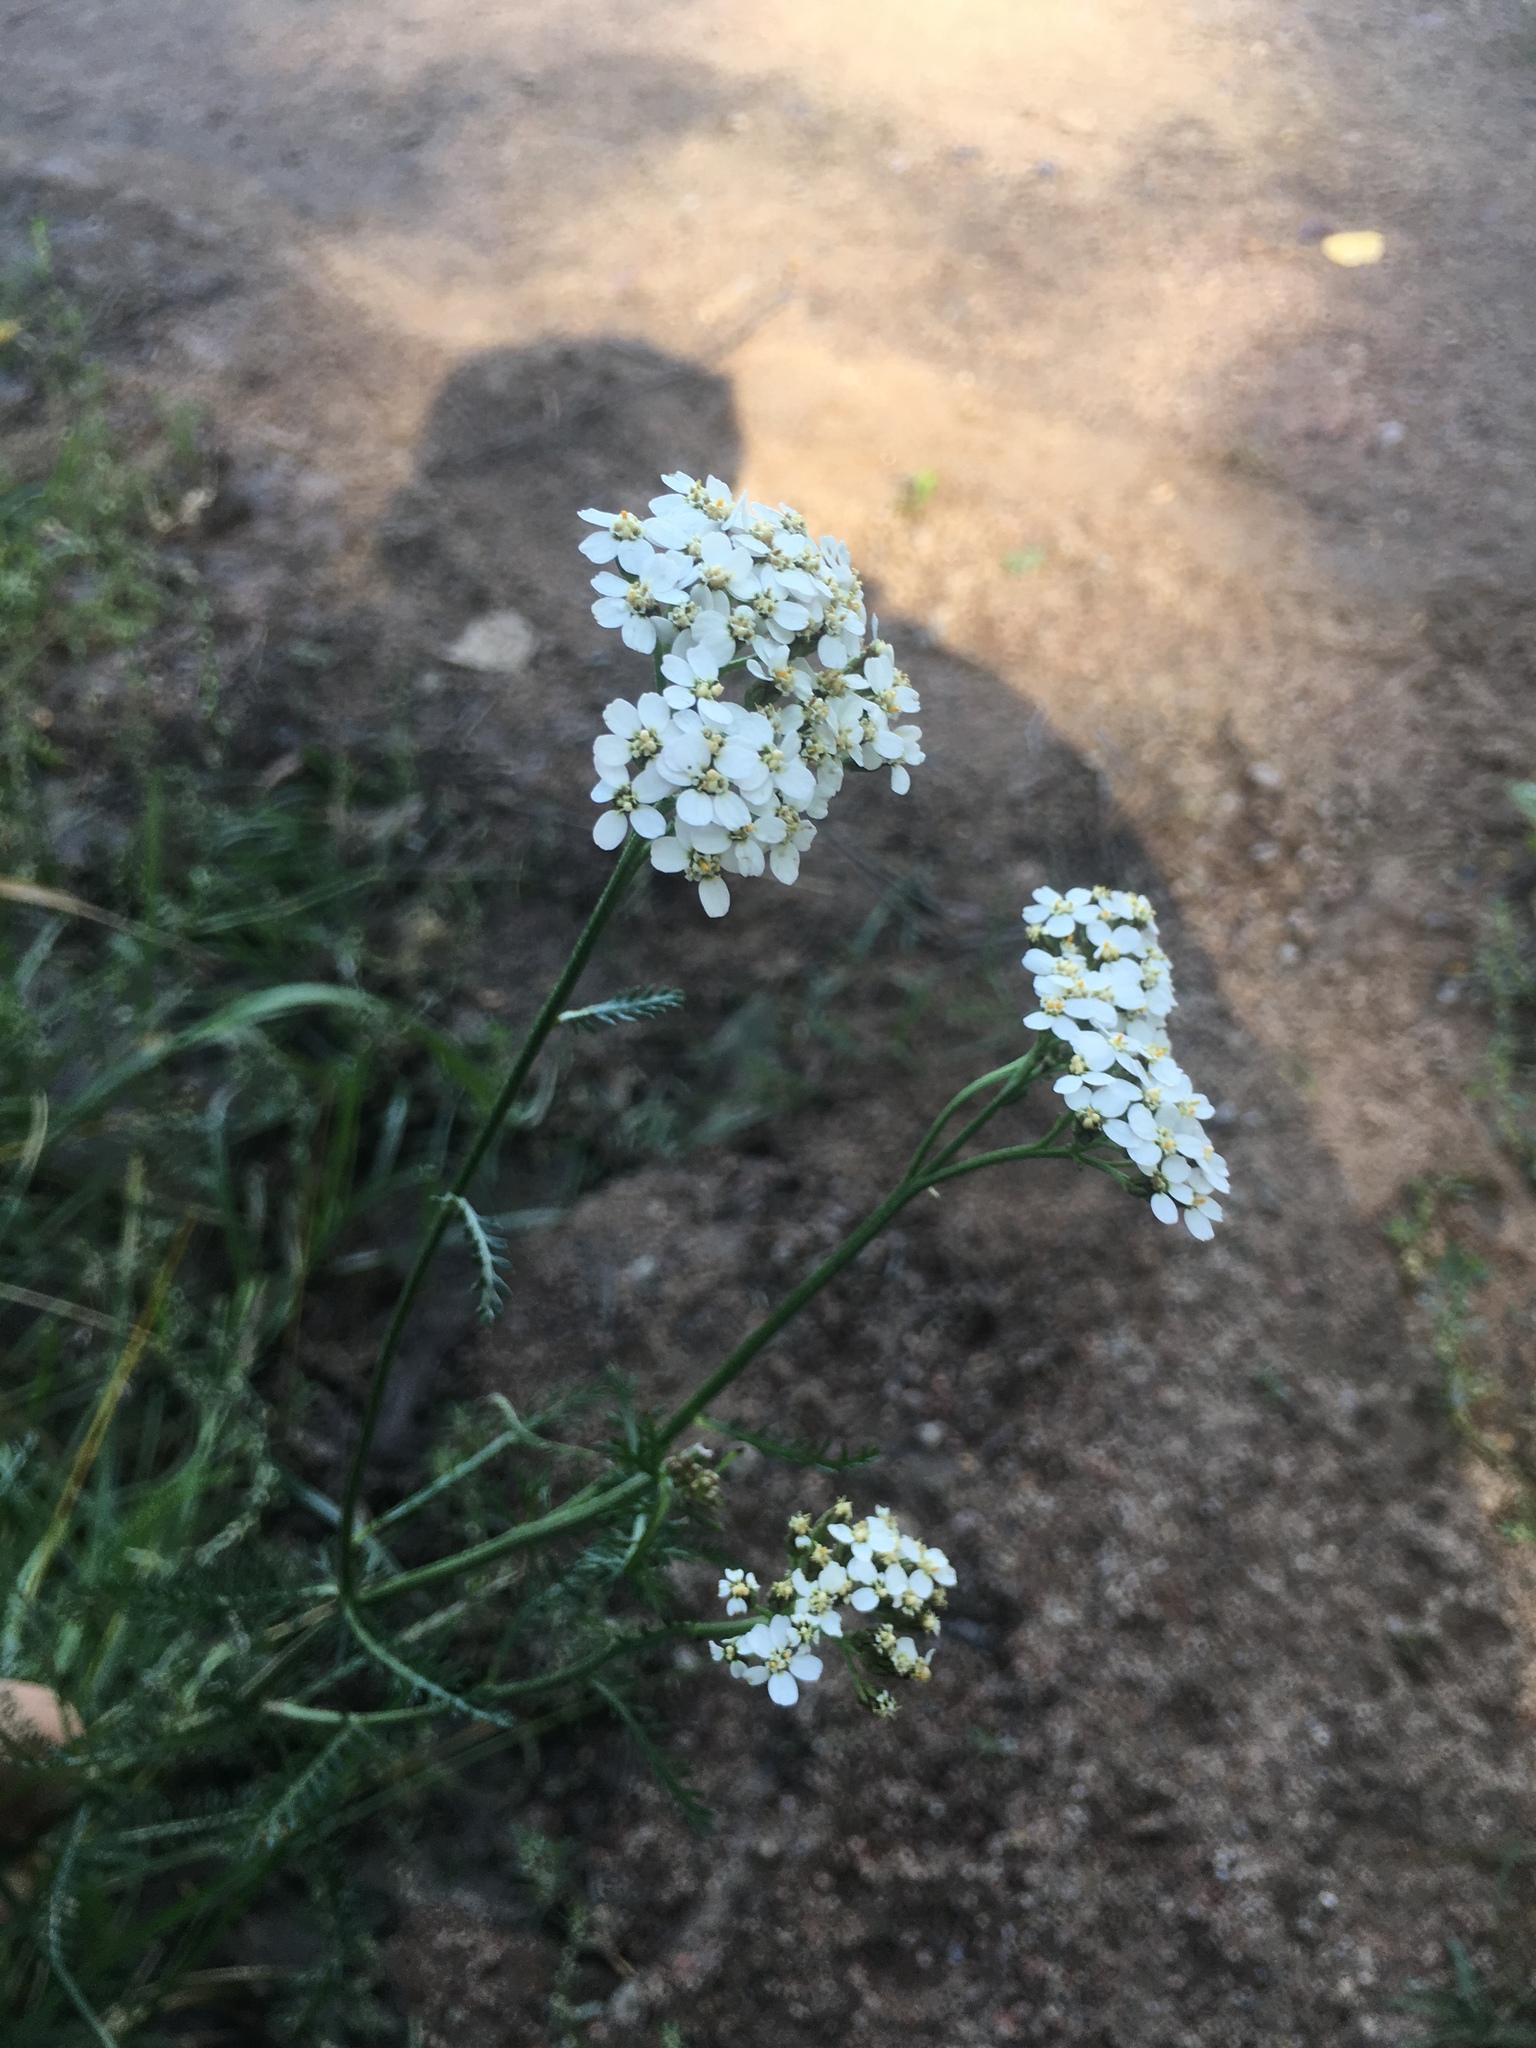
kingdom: Plantae
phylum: Tracheophyta
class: Magnoliopsida
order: Asterales
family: Asteraceae
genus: Achillea
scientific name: Achillea millefolium
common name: Yarrow
